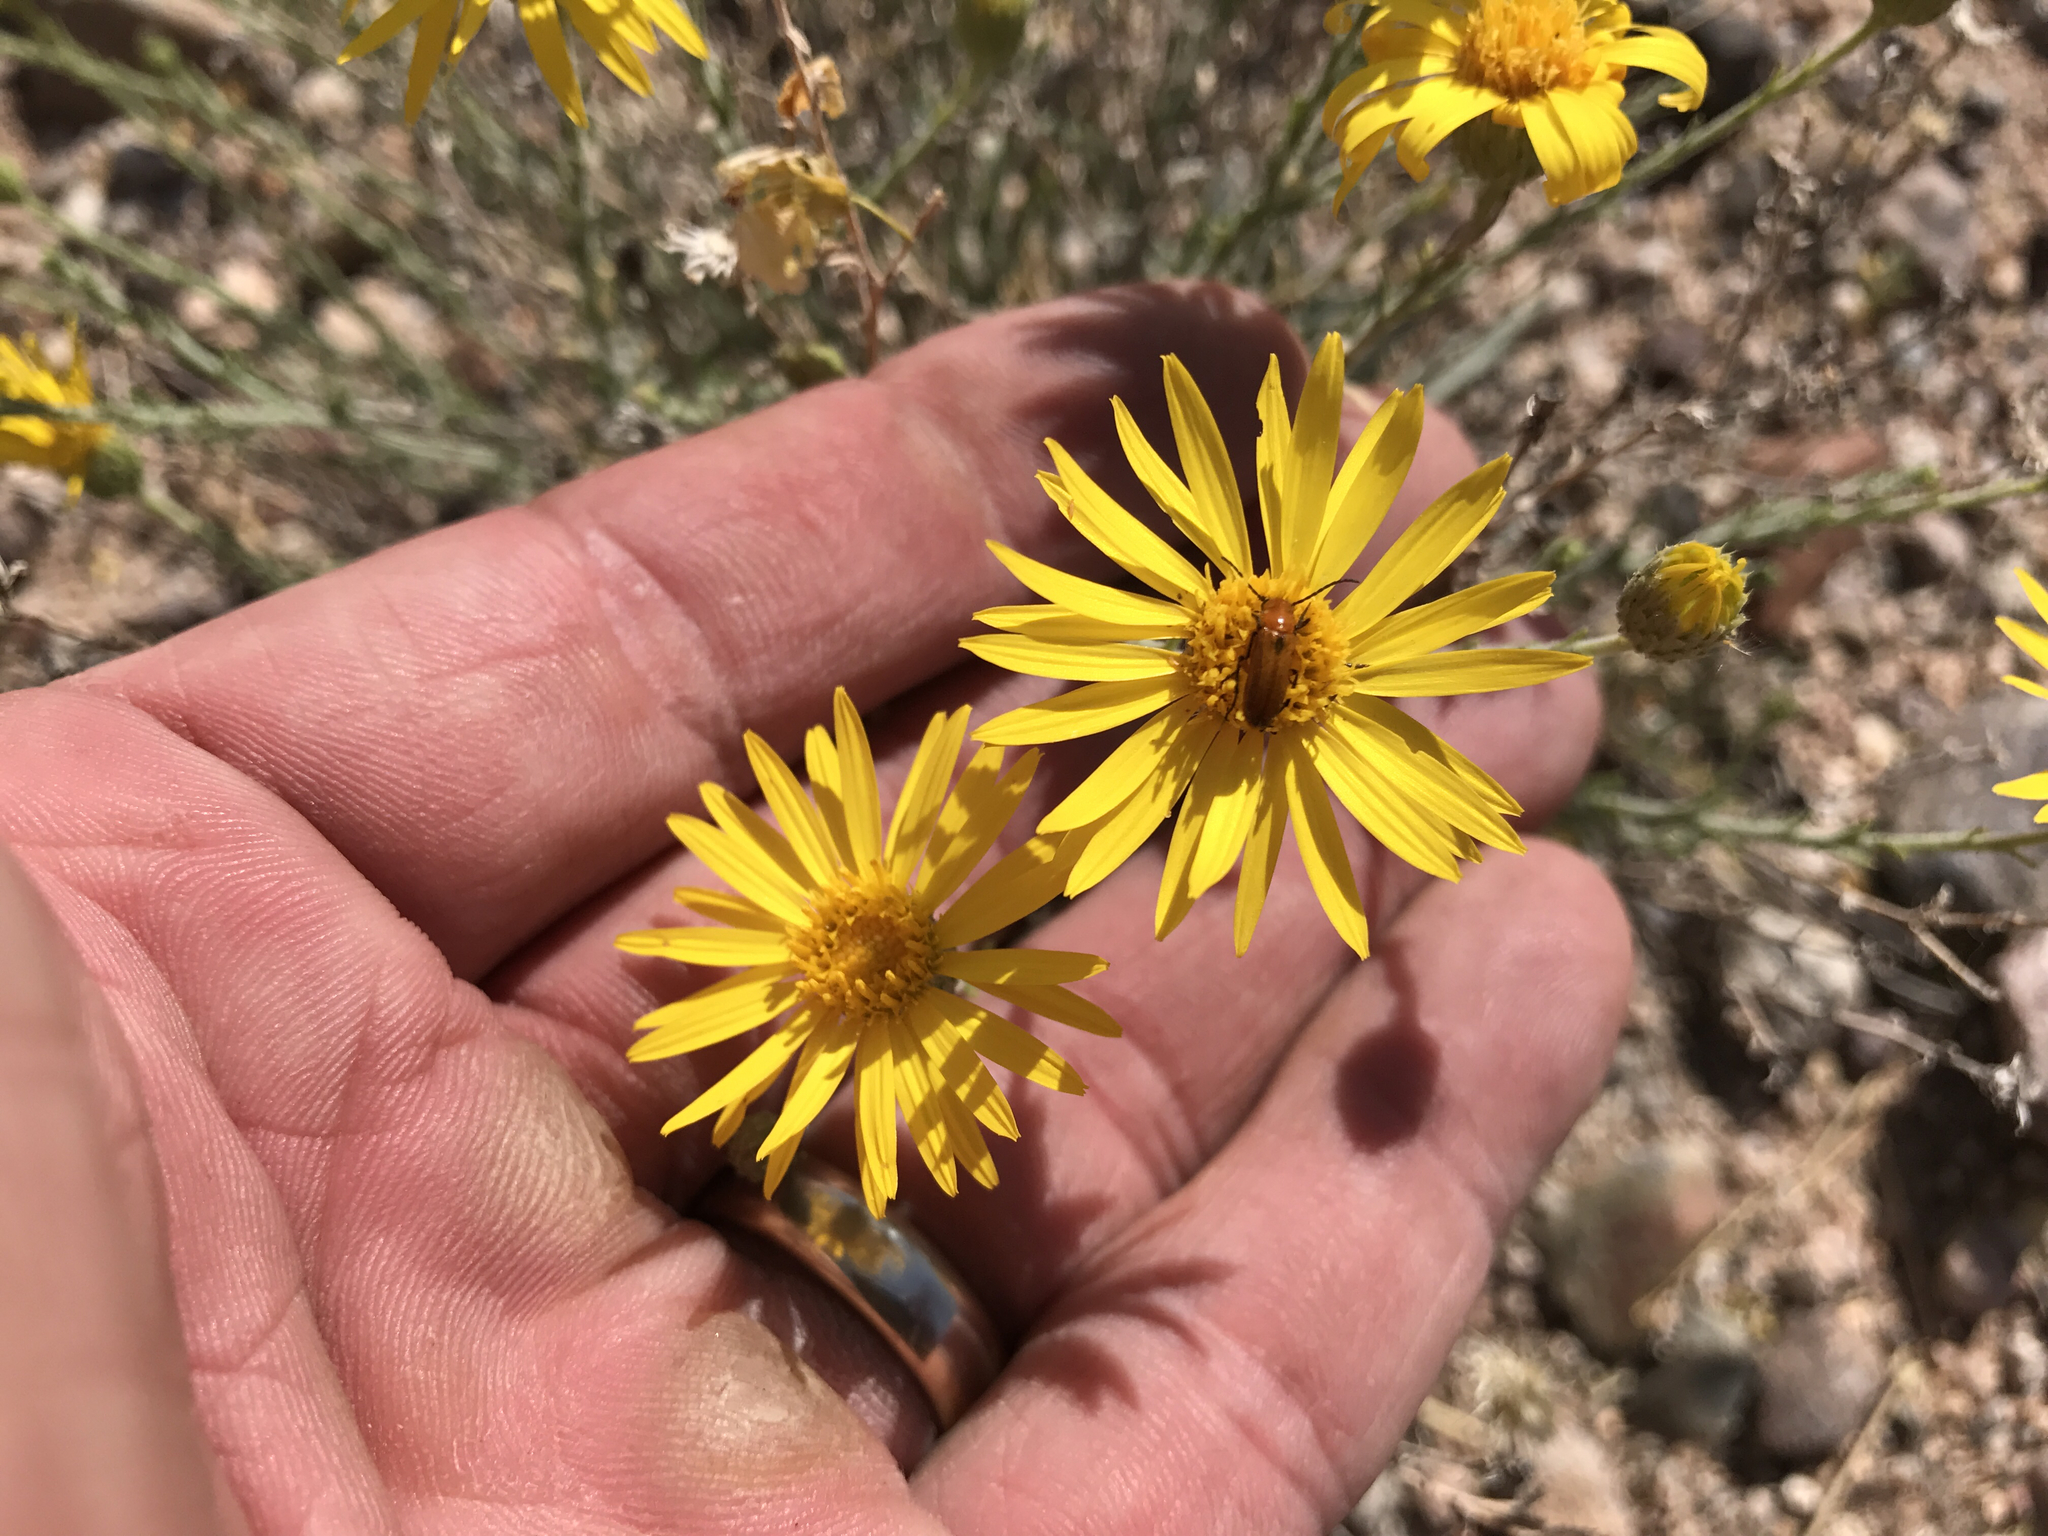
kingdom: Plantae
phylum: Tracheophyta
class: Magnoliopsida
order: Asterales
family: Asteraceae
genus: Xanthisma
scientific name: Xanthisma spinulosum
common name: Spiny goldenweed
